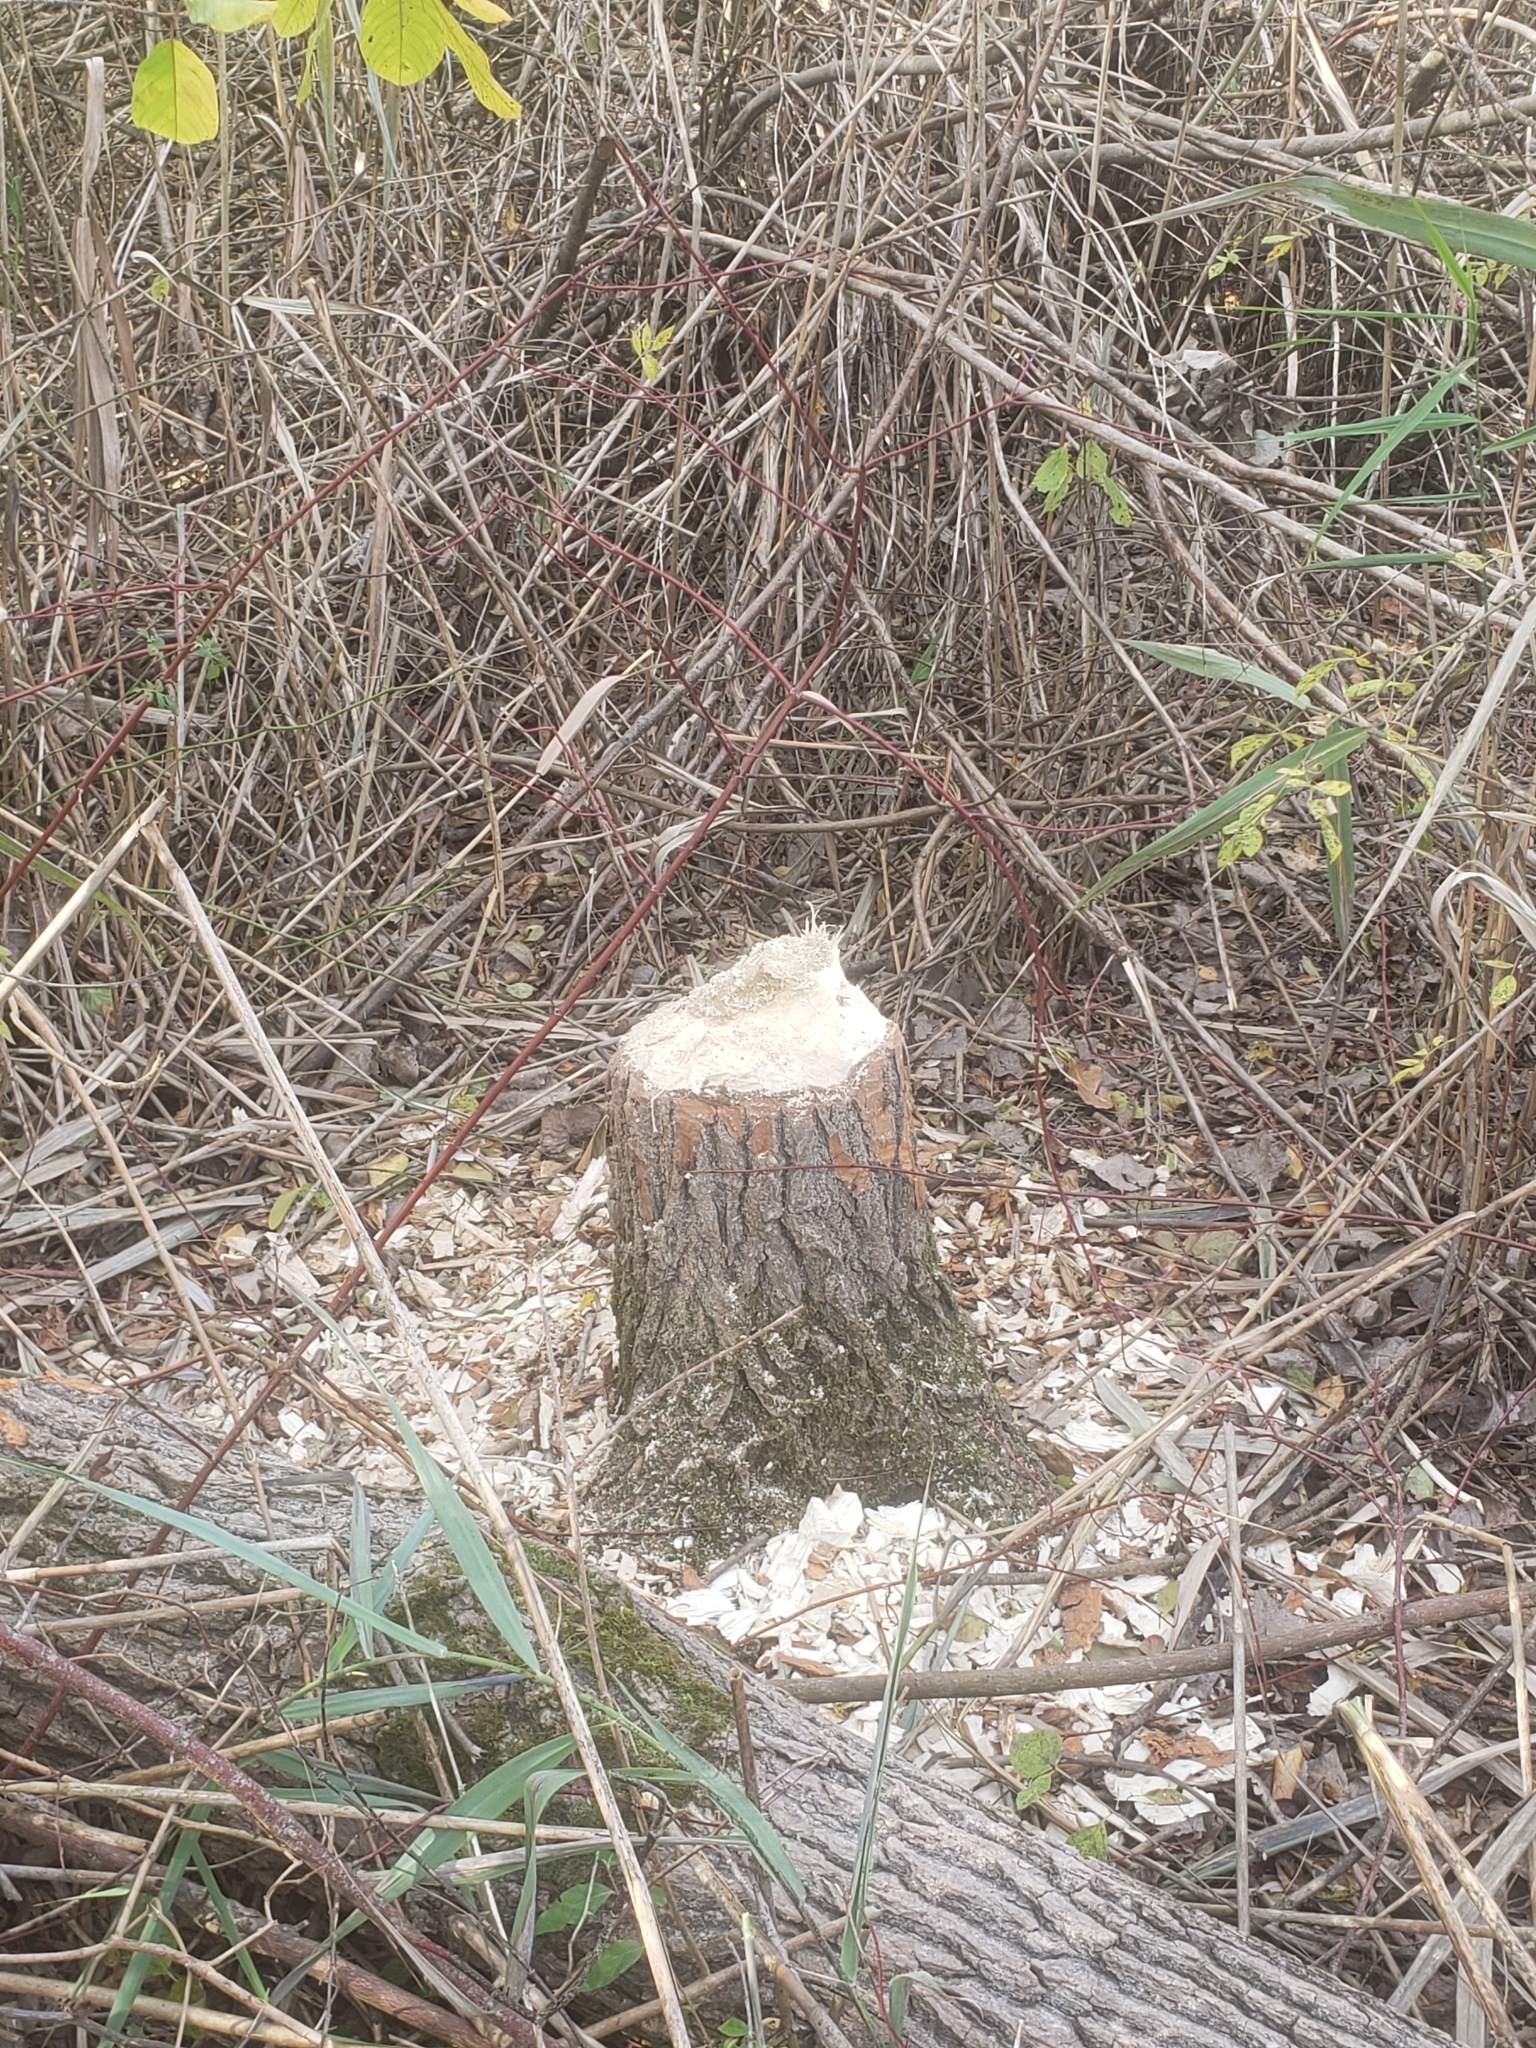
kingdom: Animalia
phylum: Chordata
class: Mammalia
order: Rodentia
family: Castoridae
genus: Castor
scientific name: Castor canadensis
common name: American beaver
